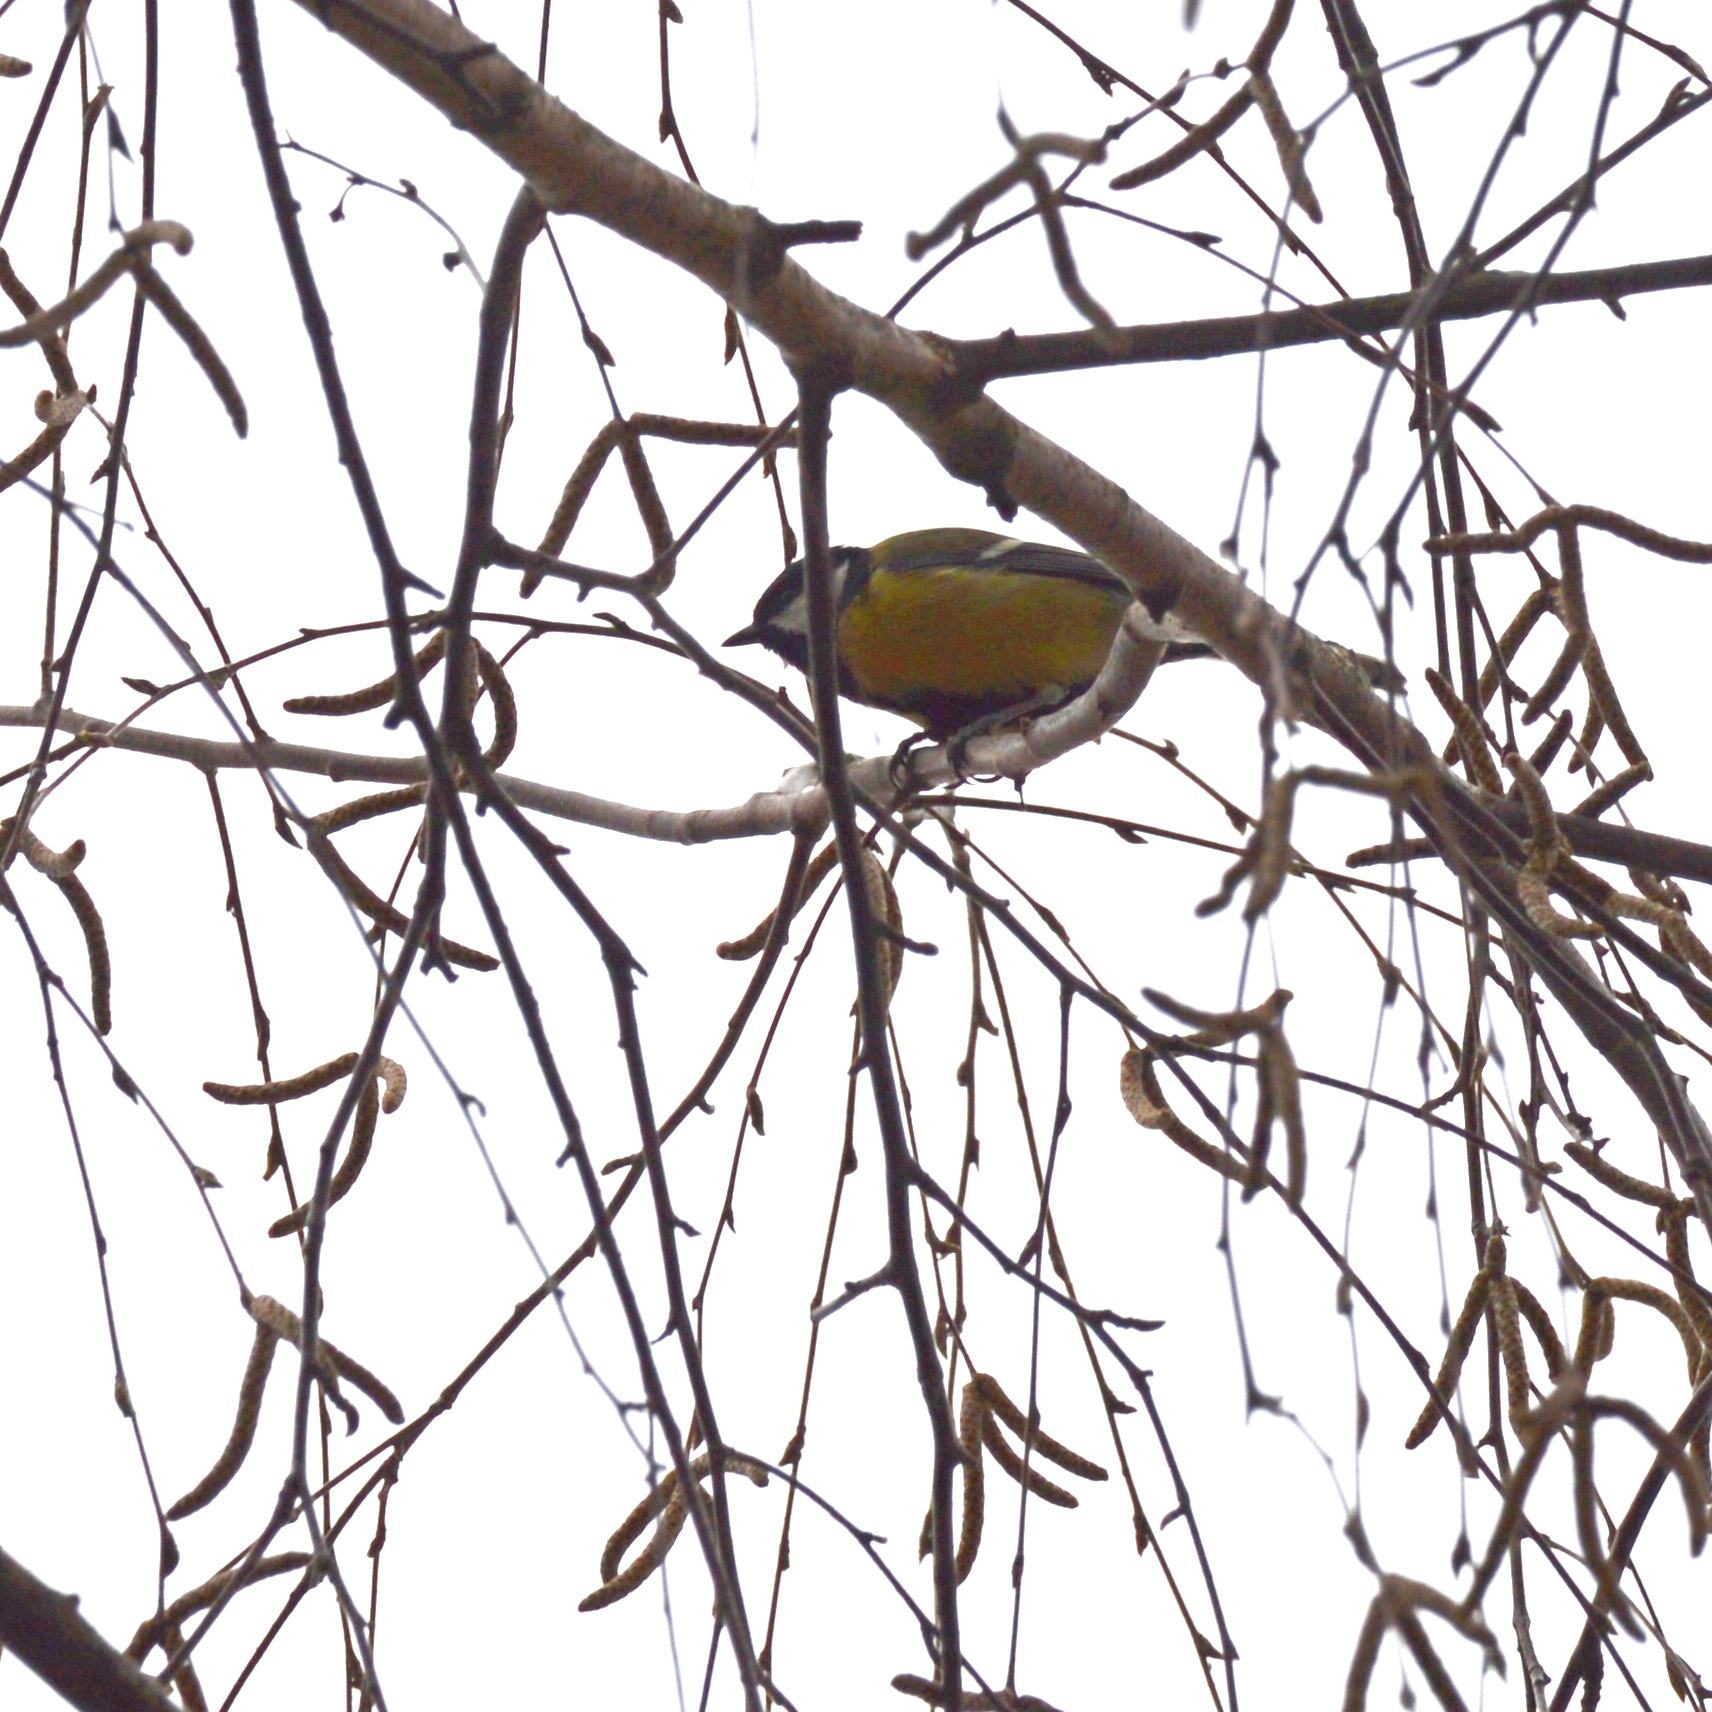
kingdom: Animalia
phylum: Chordata
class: Aves
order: Passeriformes
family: Paridae
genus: Parus
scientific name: Parus major
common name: Great tit
